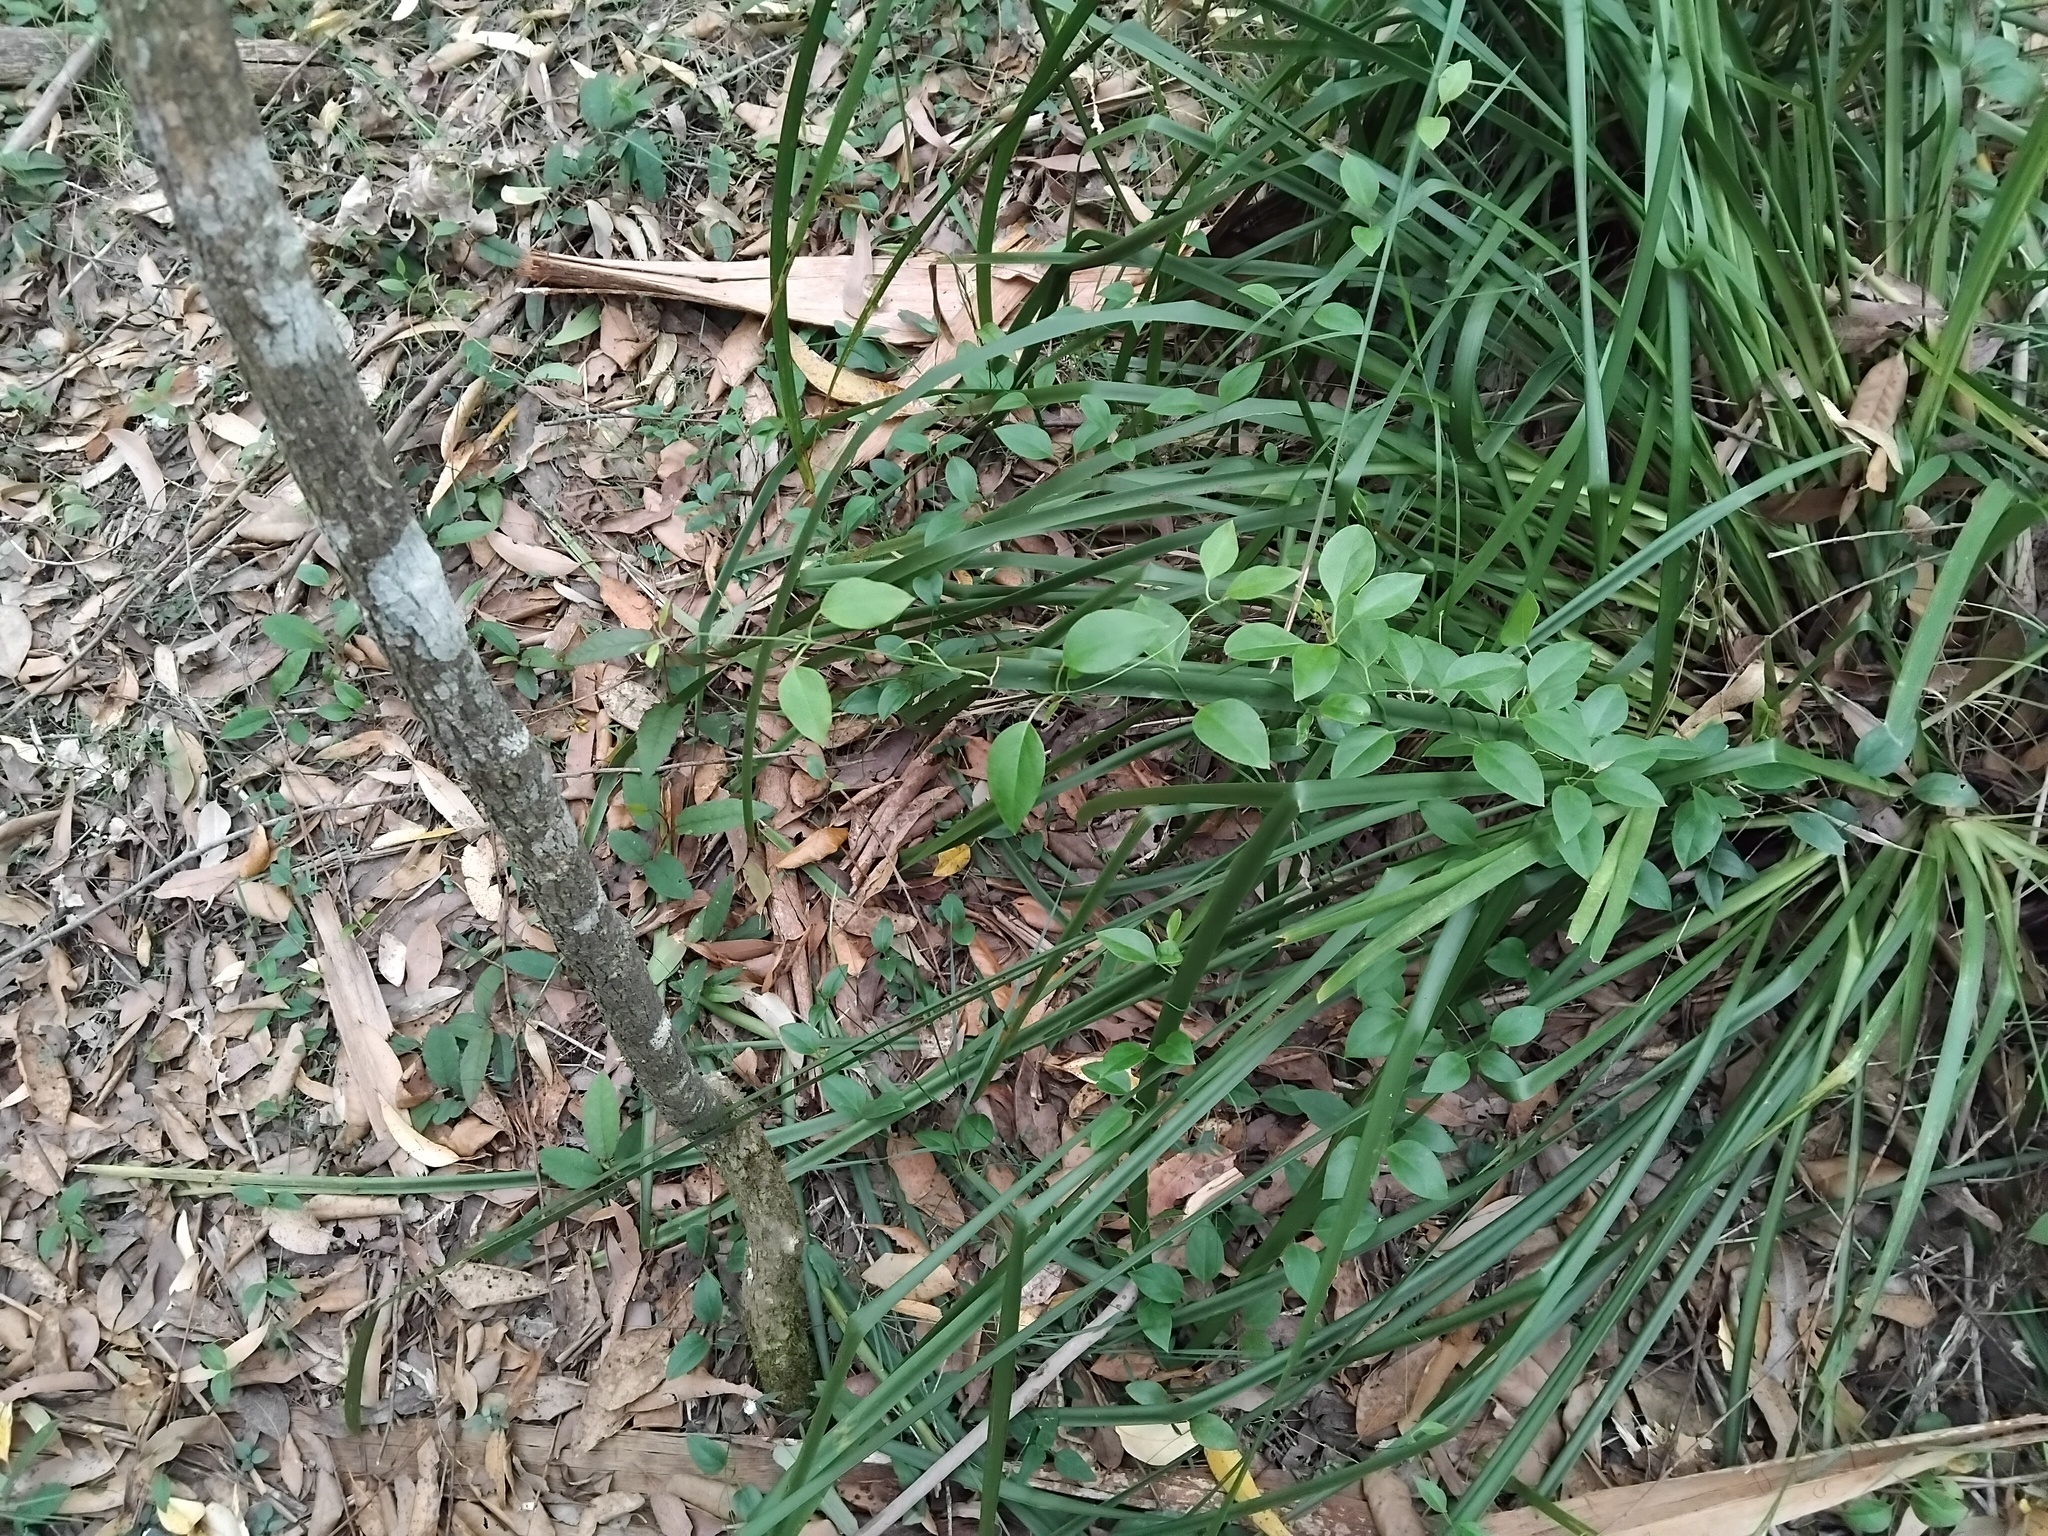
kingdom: Plantae
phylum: Tracheophyta
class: Magnoliopsida
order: Gentianales
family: Apocynaceae
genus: Vincetoxicum
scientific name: Vincetoxicum barbatum
